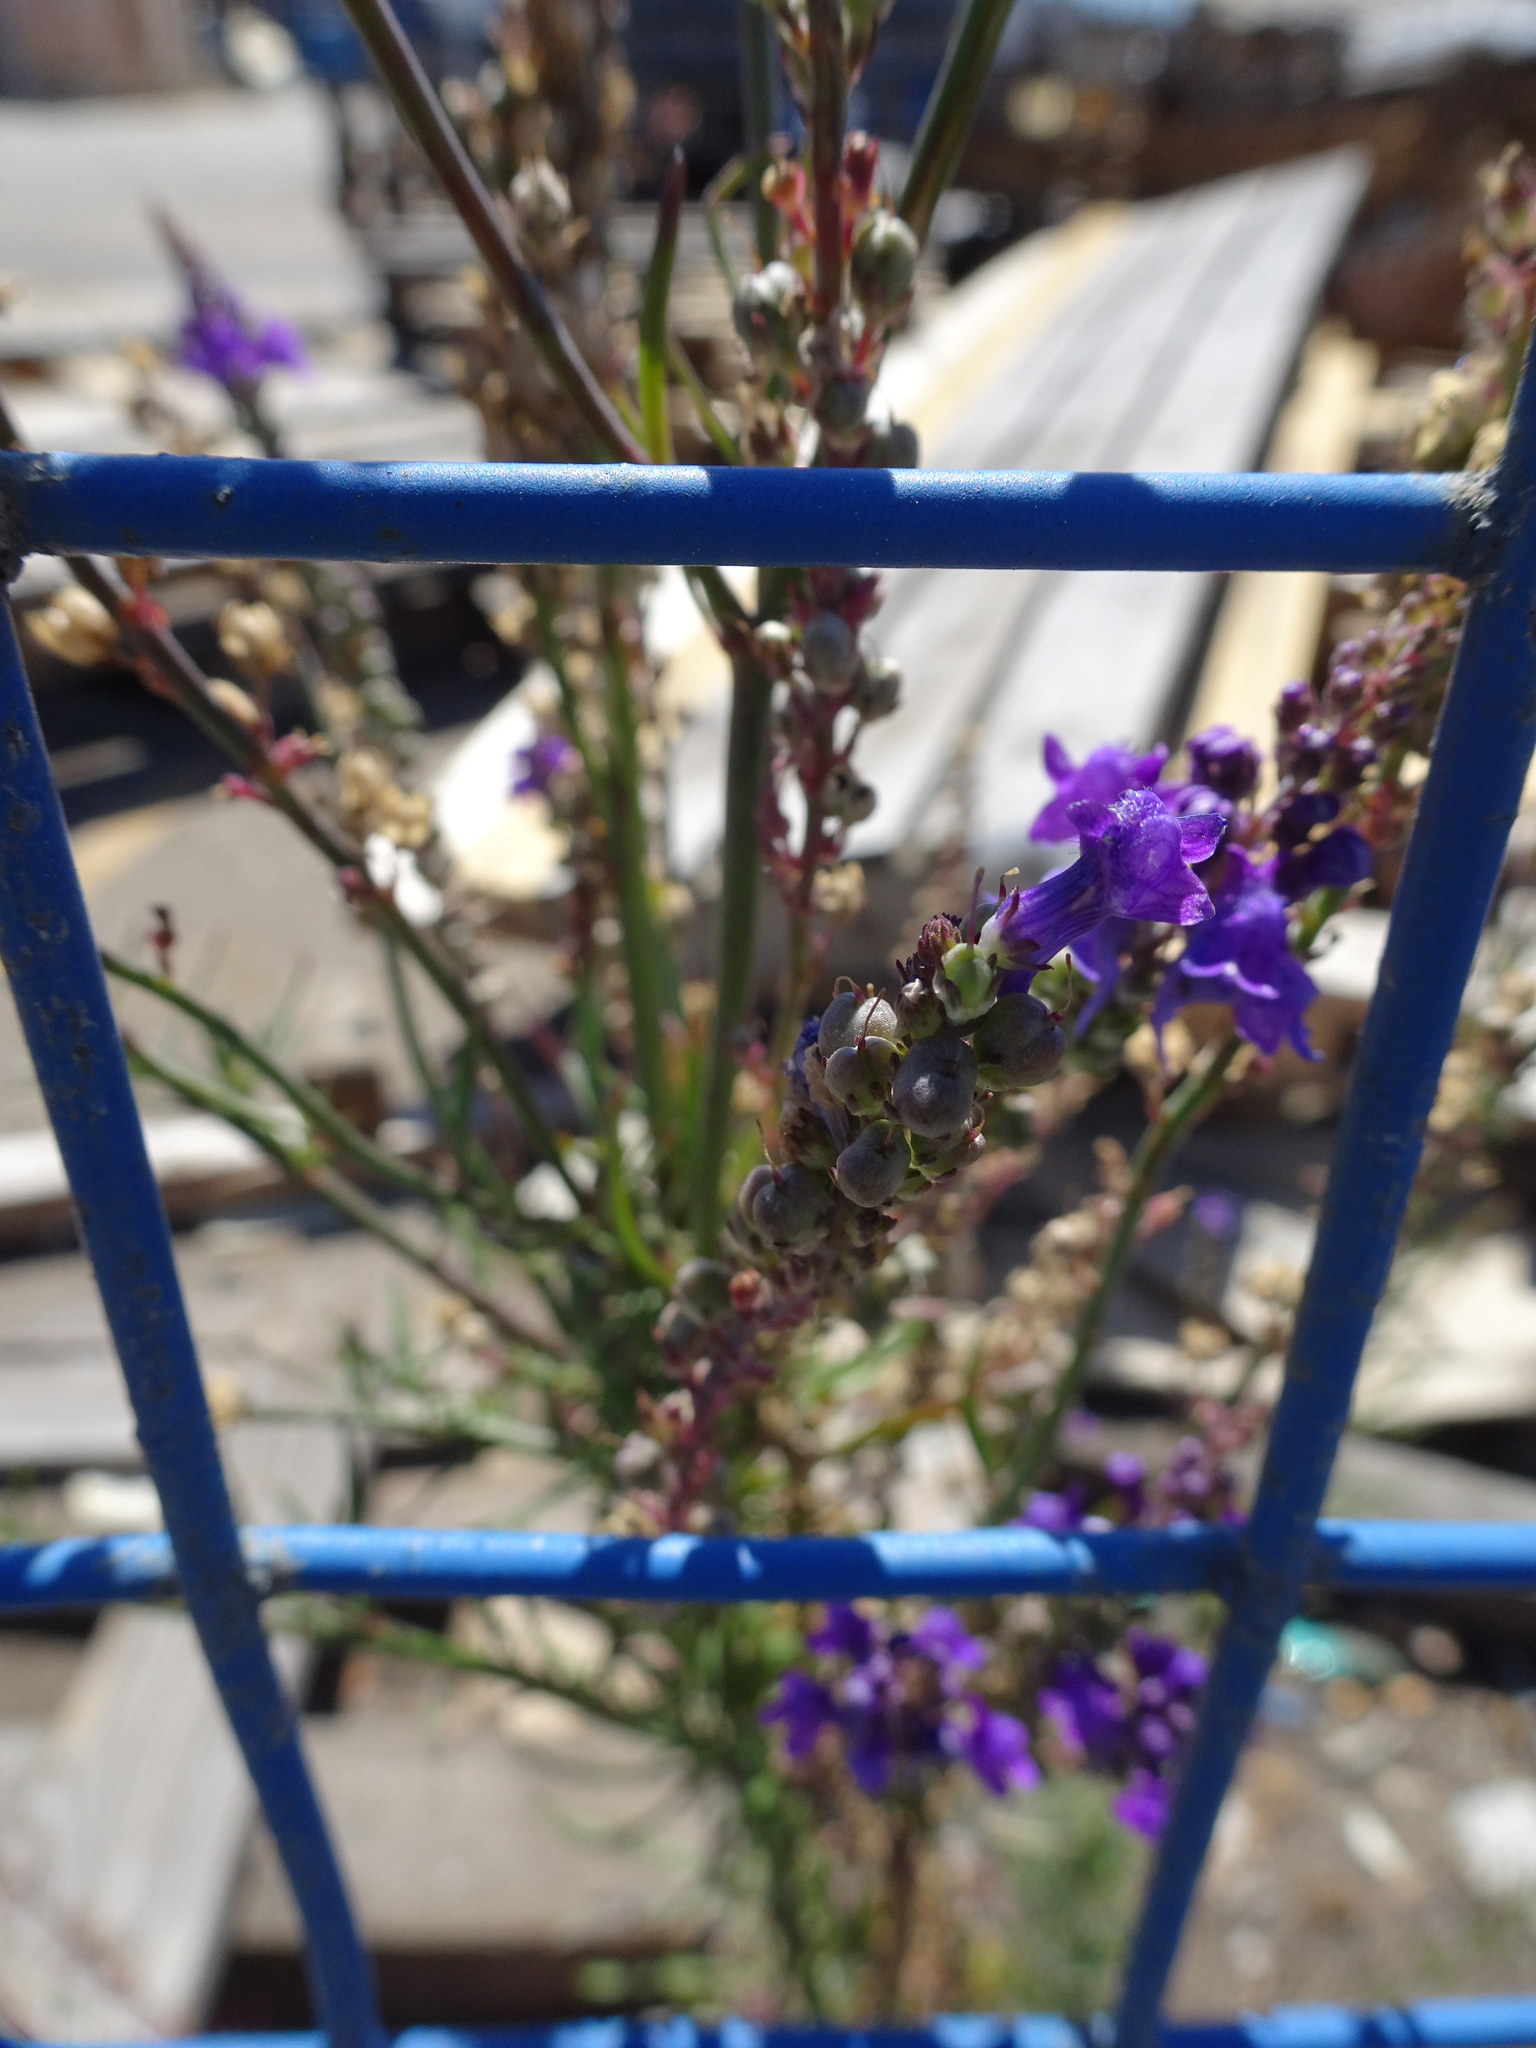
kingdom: Plantae
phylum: Tracheophyta
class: Magnoliopsida
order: Lamiales
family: Plantaginaceae
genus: Linaria
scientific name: Linaria purpurea
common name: Purple toadflax
